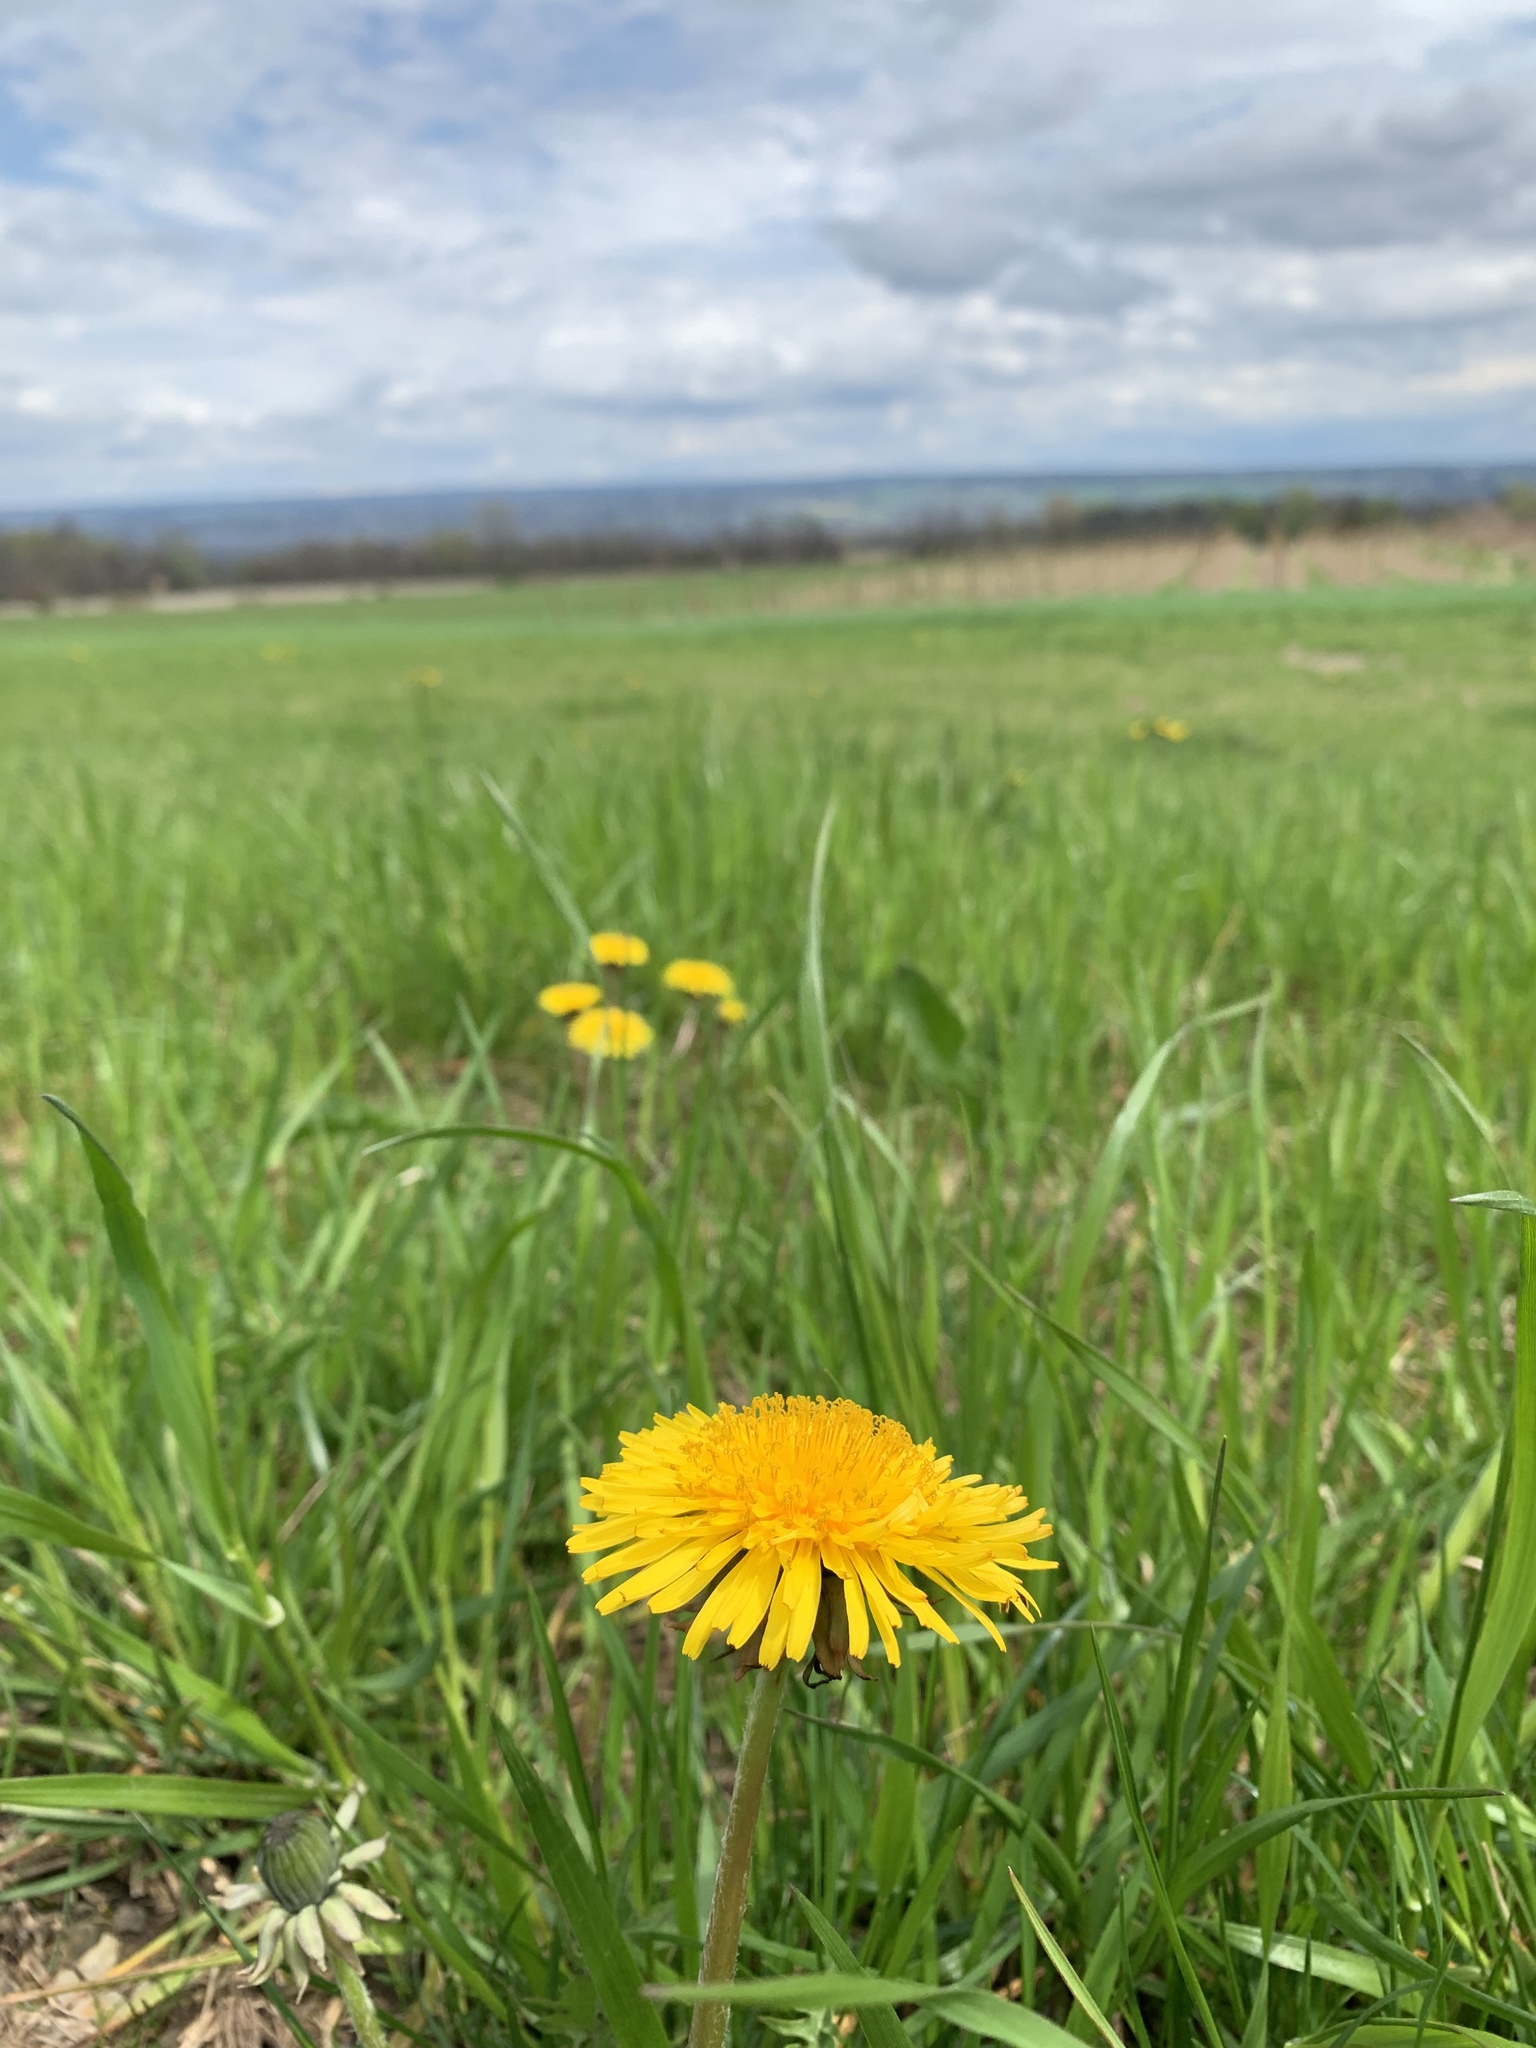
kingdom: Plantae
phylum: Tracheophyta
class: Magnoliopsida
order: Asterales
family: Asteraceae
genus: Taraxacum
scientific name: Taraxacum officinale
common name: Common dandelion
